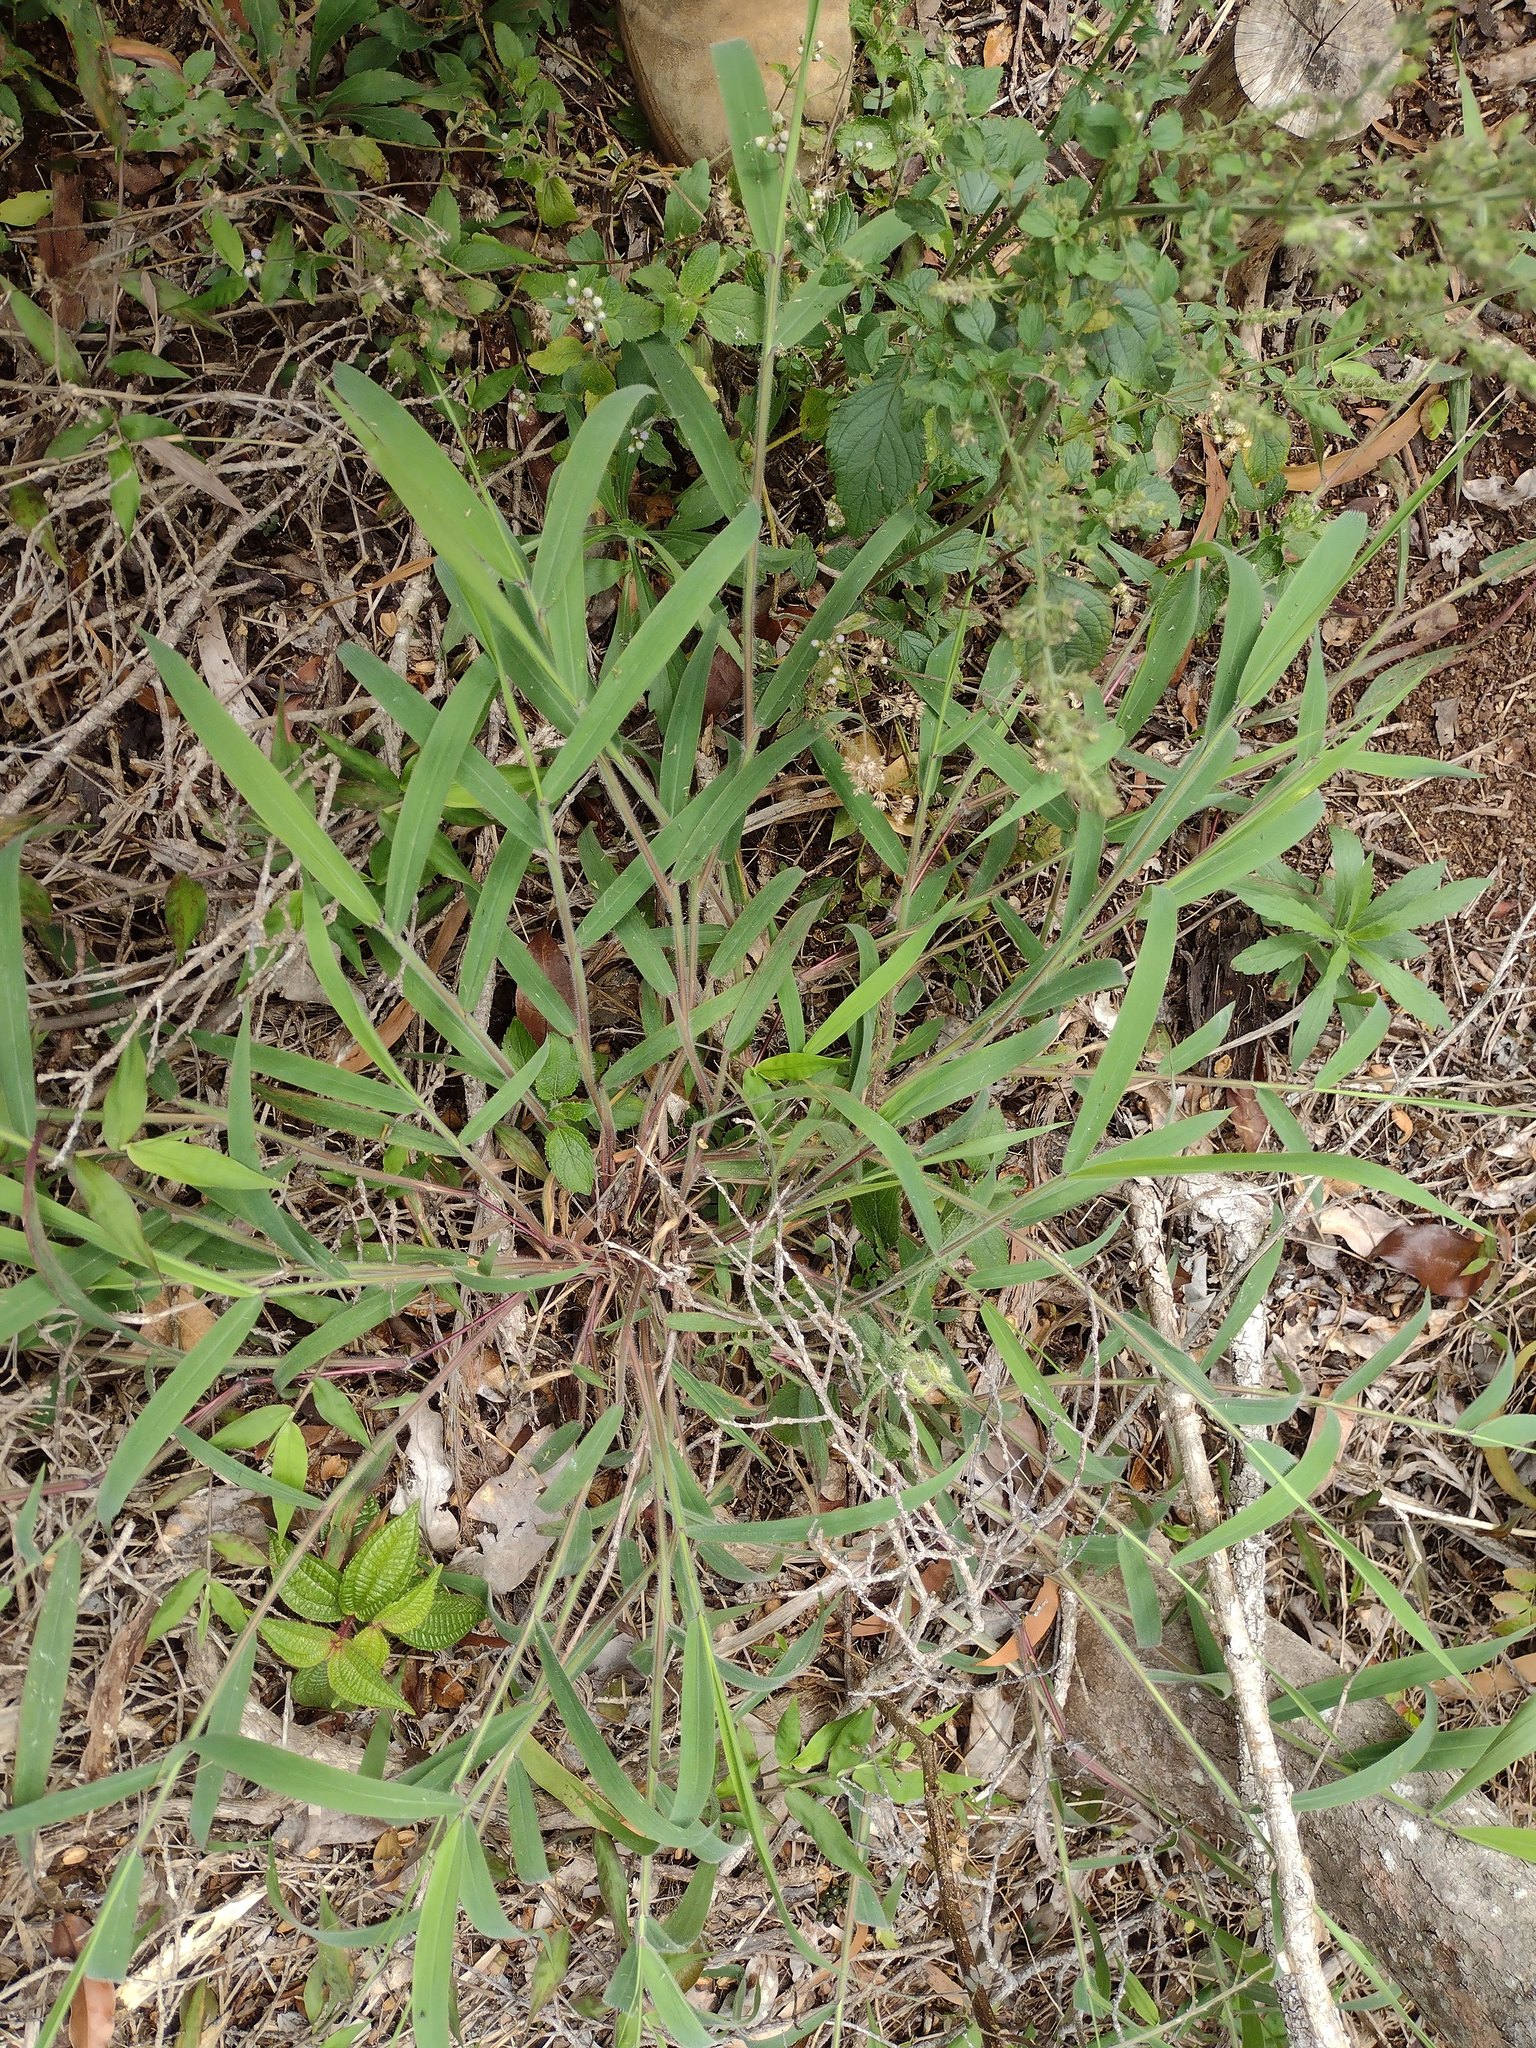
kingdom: Plantae
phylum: Tracheophyta
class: Liliopsida
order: Poales
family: Poaceae
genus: Melinis
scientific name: Melinis minutiflora
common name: Molassesgrass
